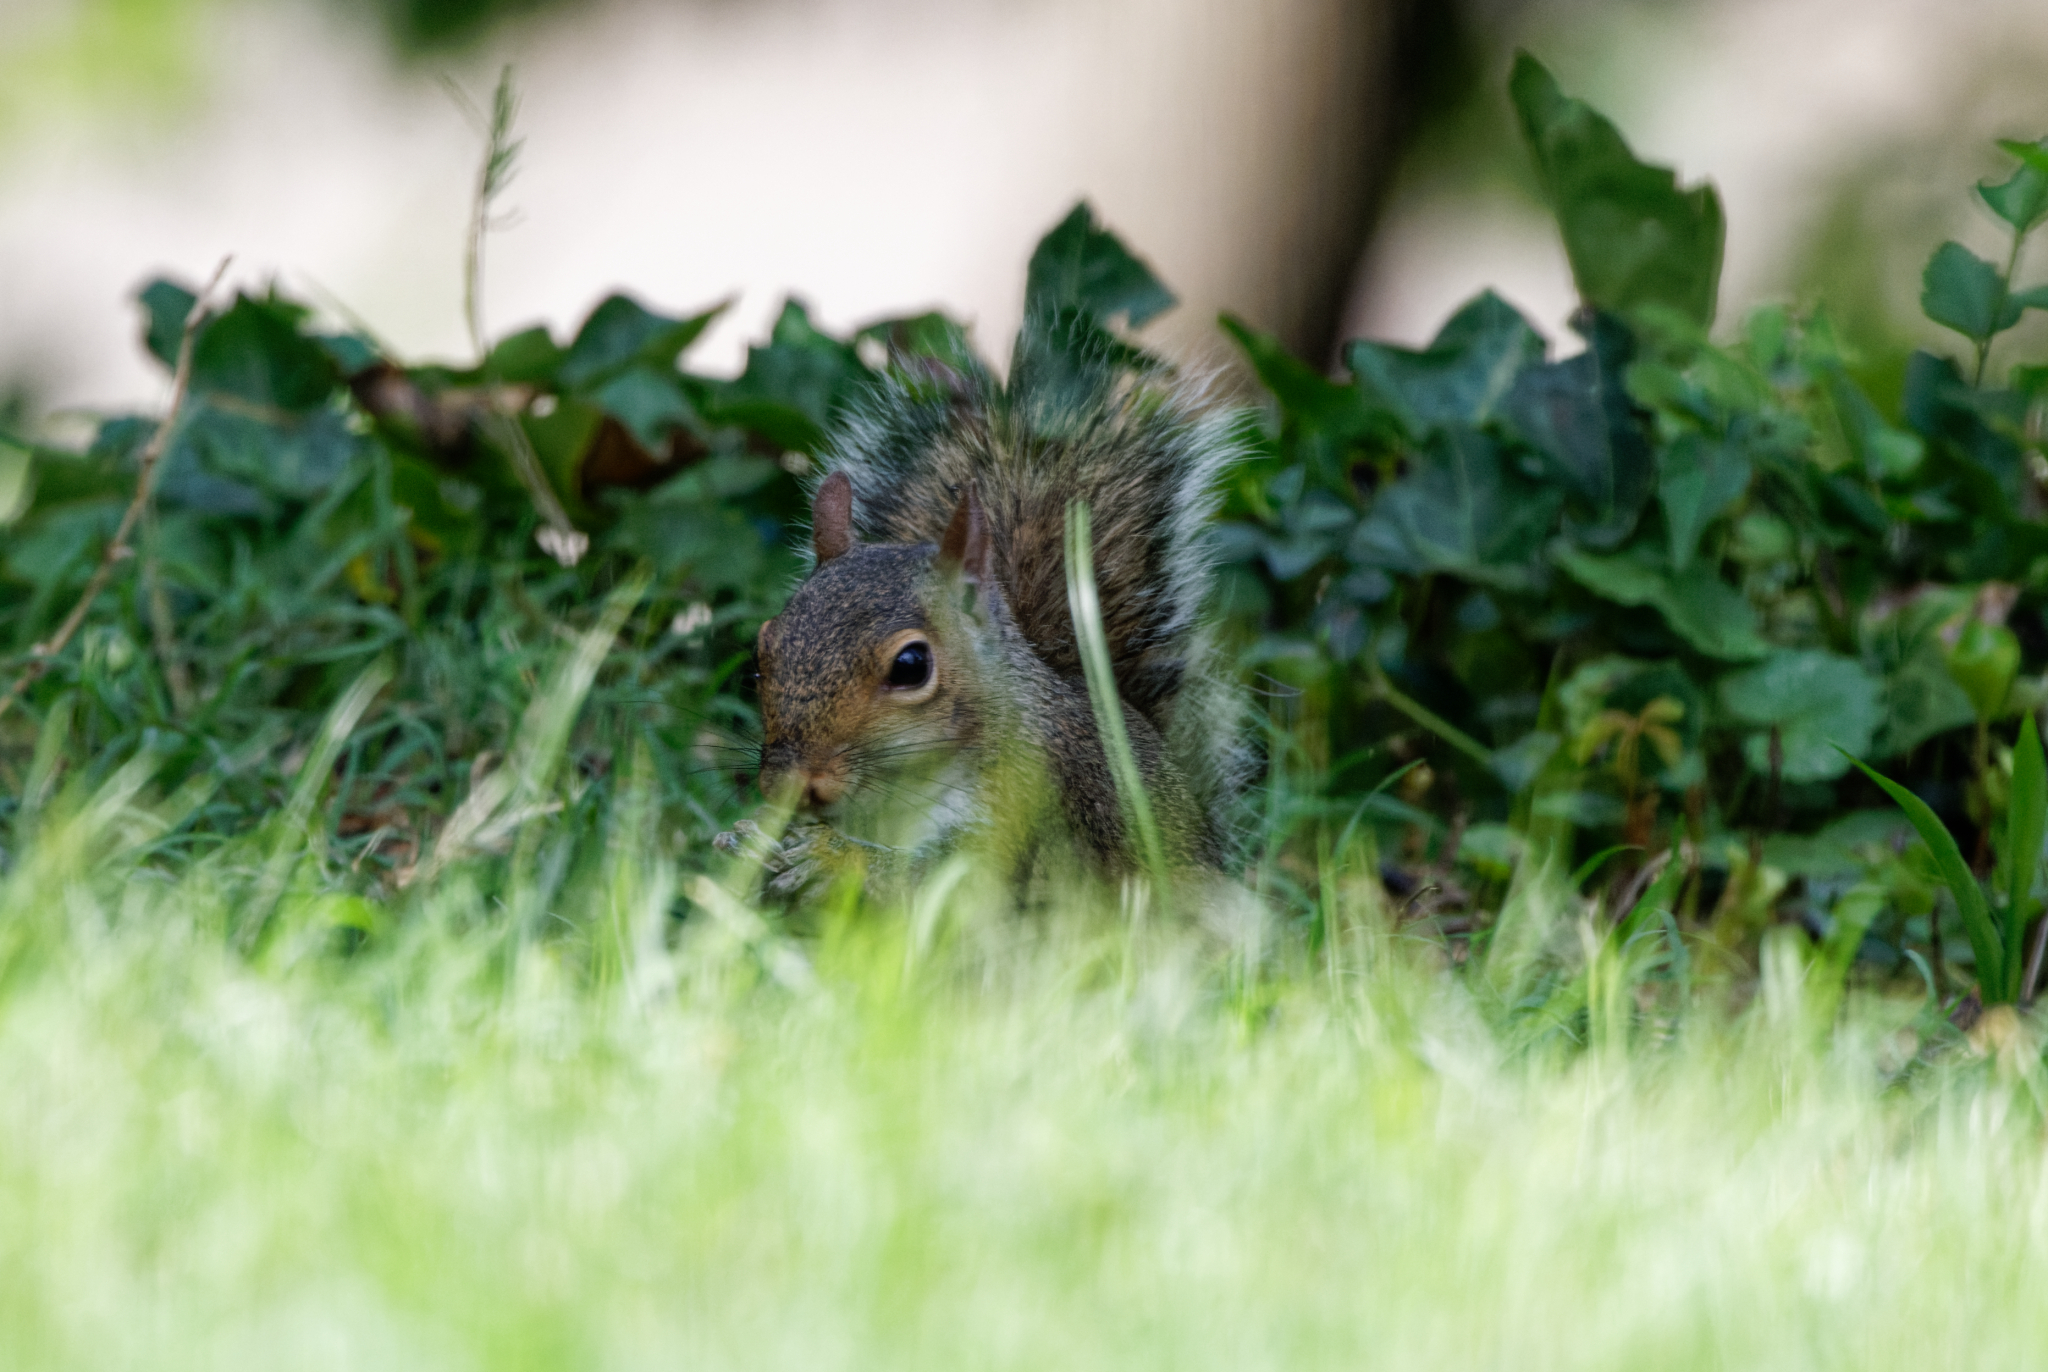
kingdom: Animalia
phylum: Chordata
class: Mammalia
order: Rodentia
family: Sciuridae
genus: Sciurus
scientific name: Sciurus carolinensis
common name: Eastern gray squirrel
